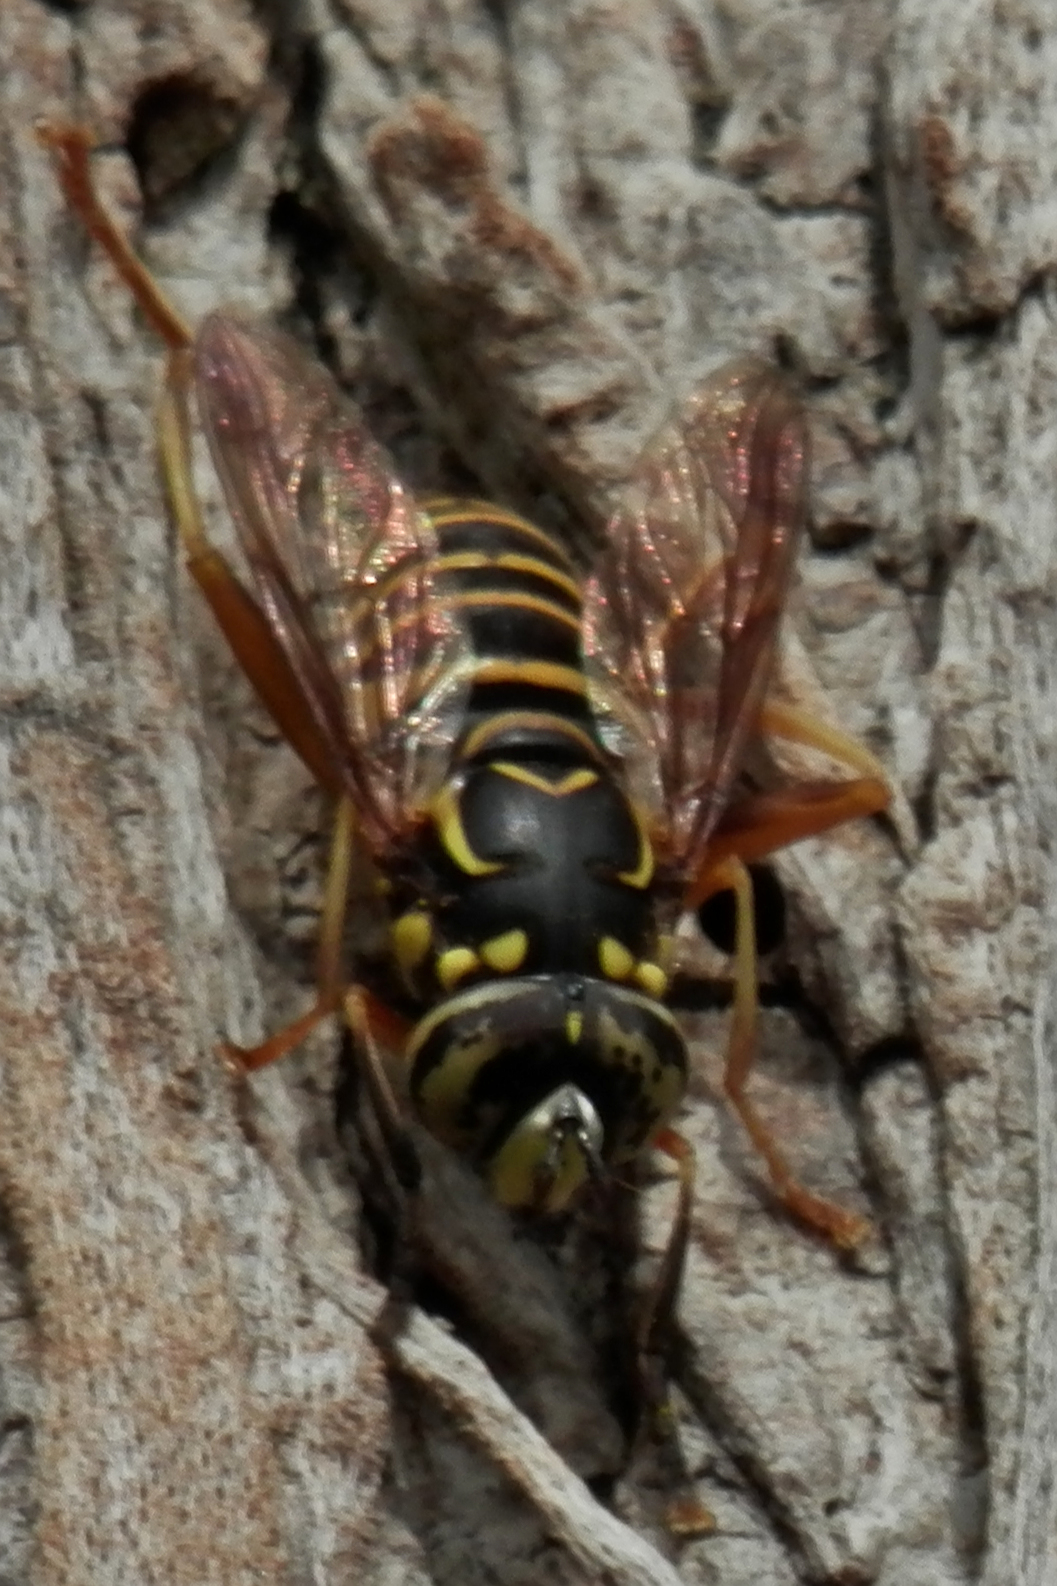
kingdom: Animalia
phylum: Arthropoda
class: Insecta
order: Diptera
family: Syrphidae
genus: Spilomyia
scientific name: Spilomyia longicornis
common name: Eastern hornet fly
